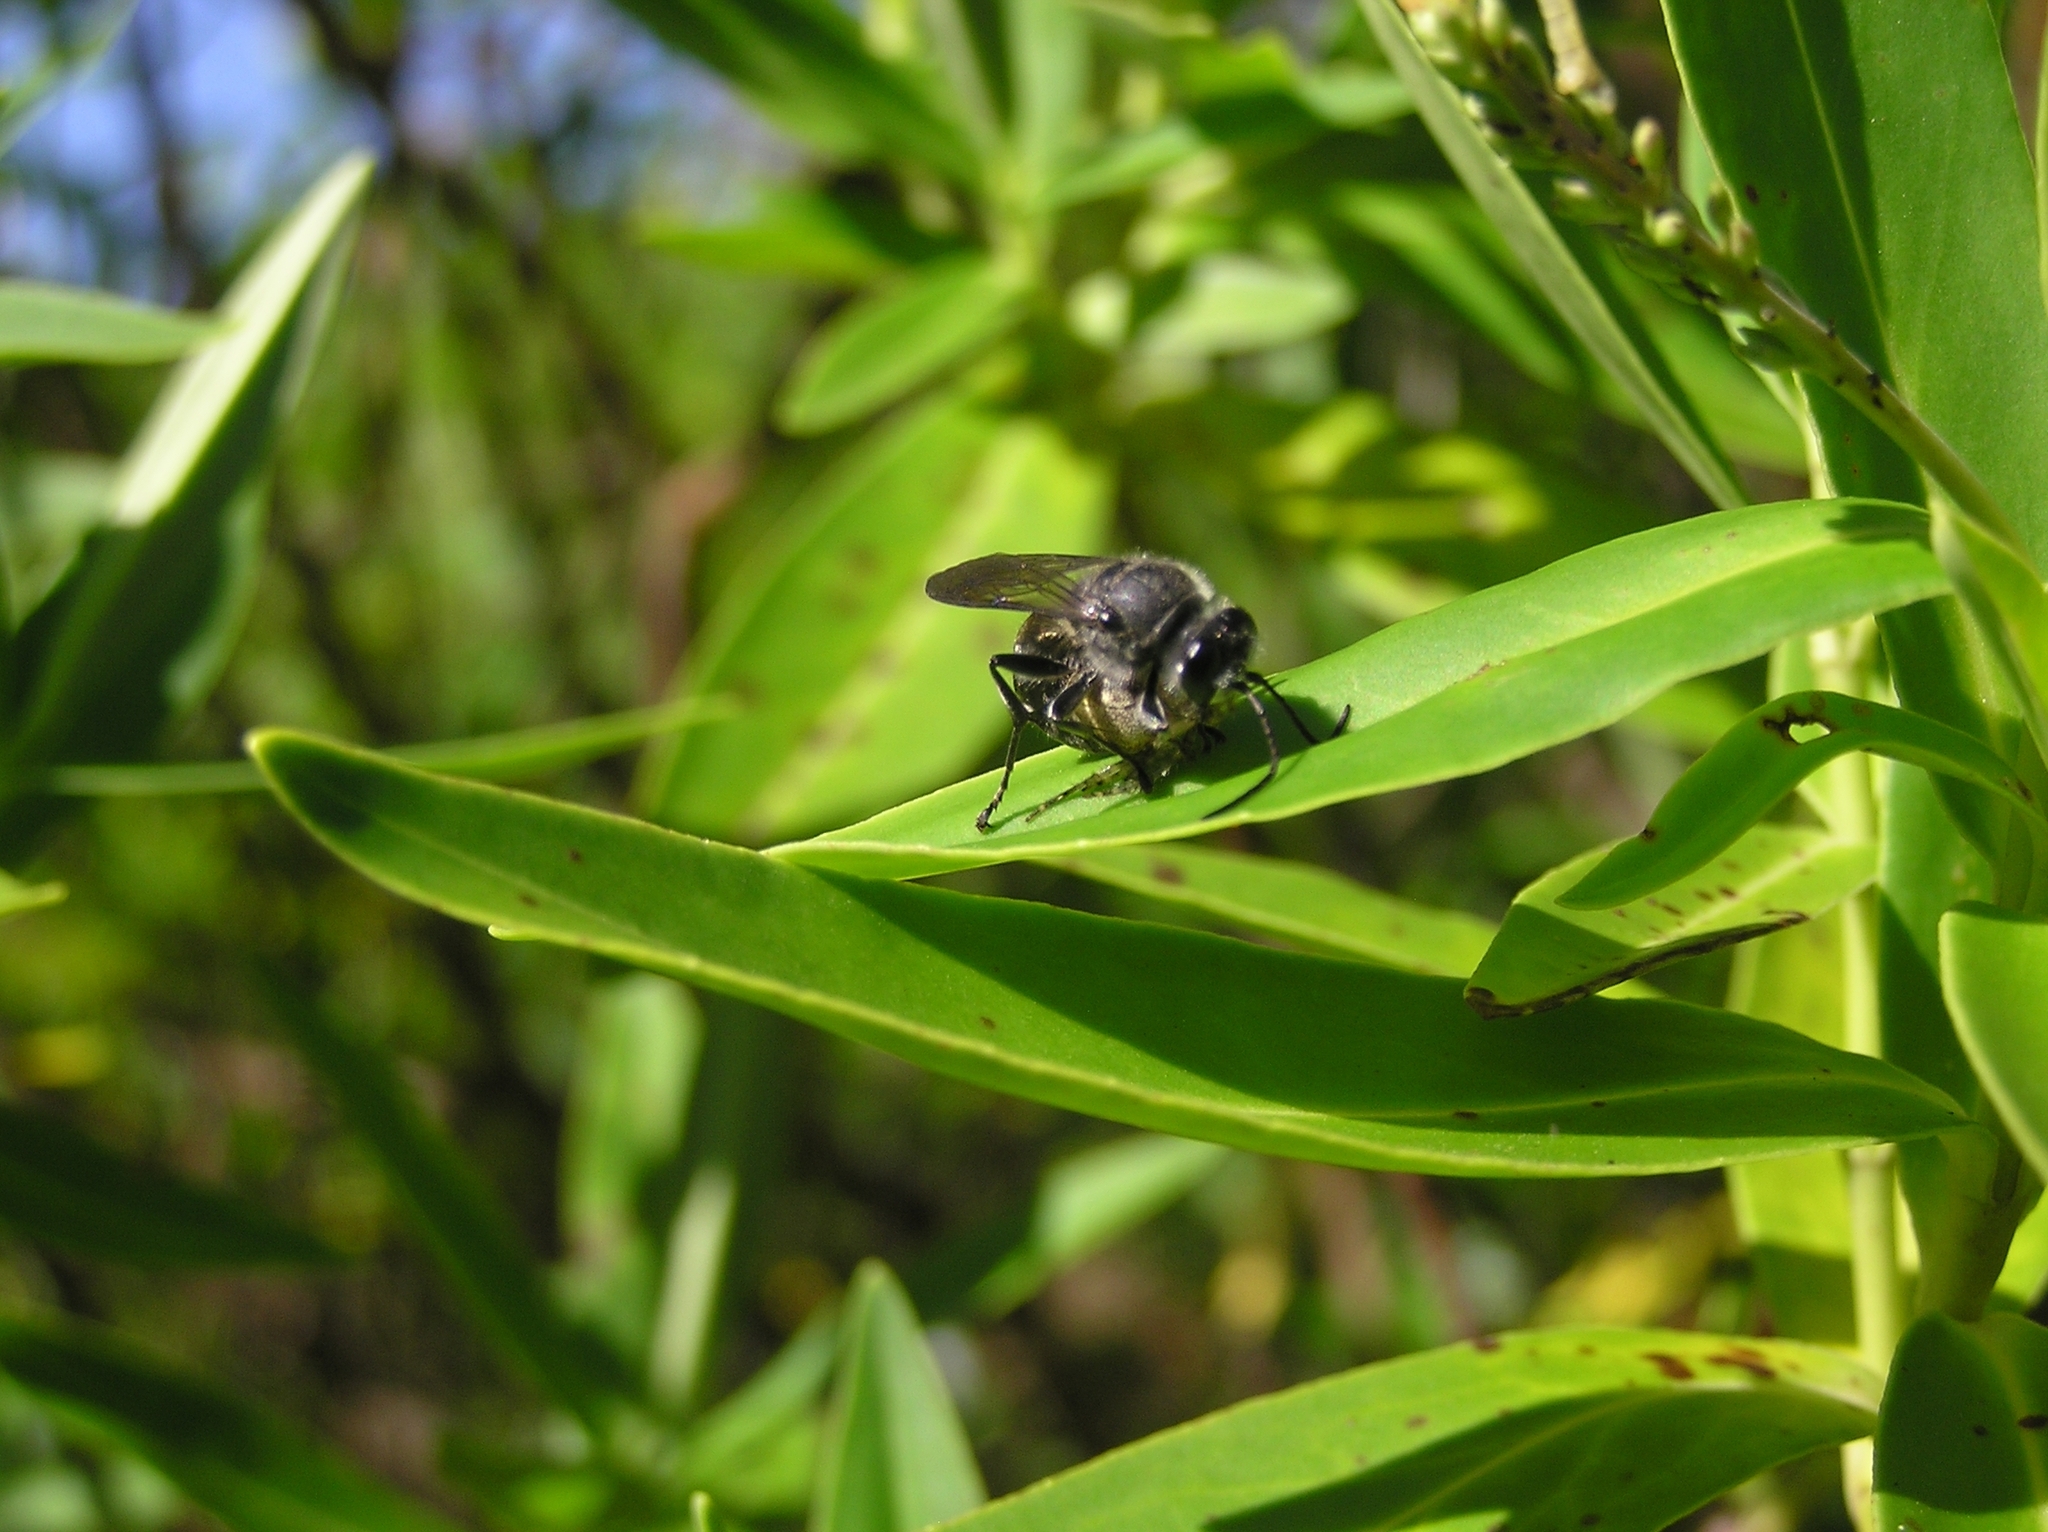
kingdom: Animalia
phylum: Arthropoda
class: Insecta
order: Hymenoptera
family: Crabronidae
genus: Pison
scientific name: Pison spinolae
